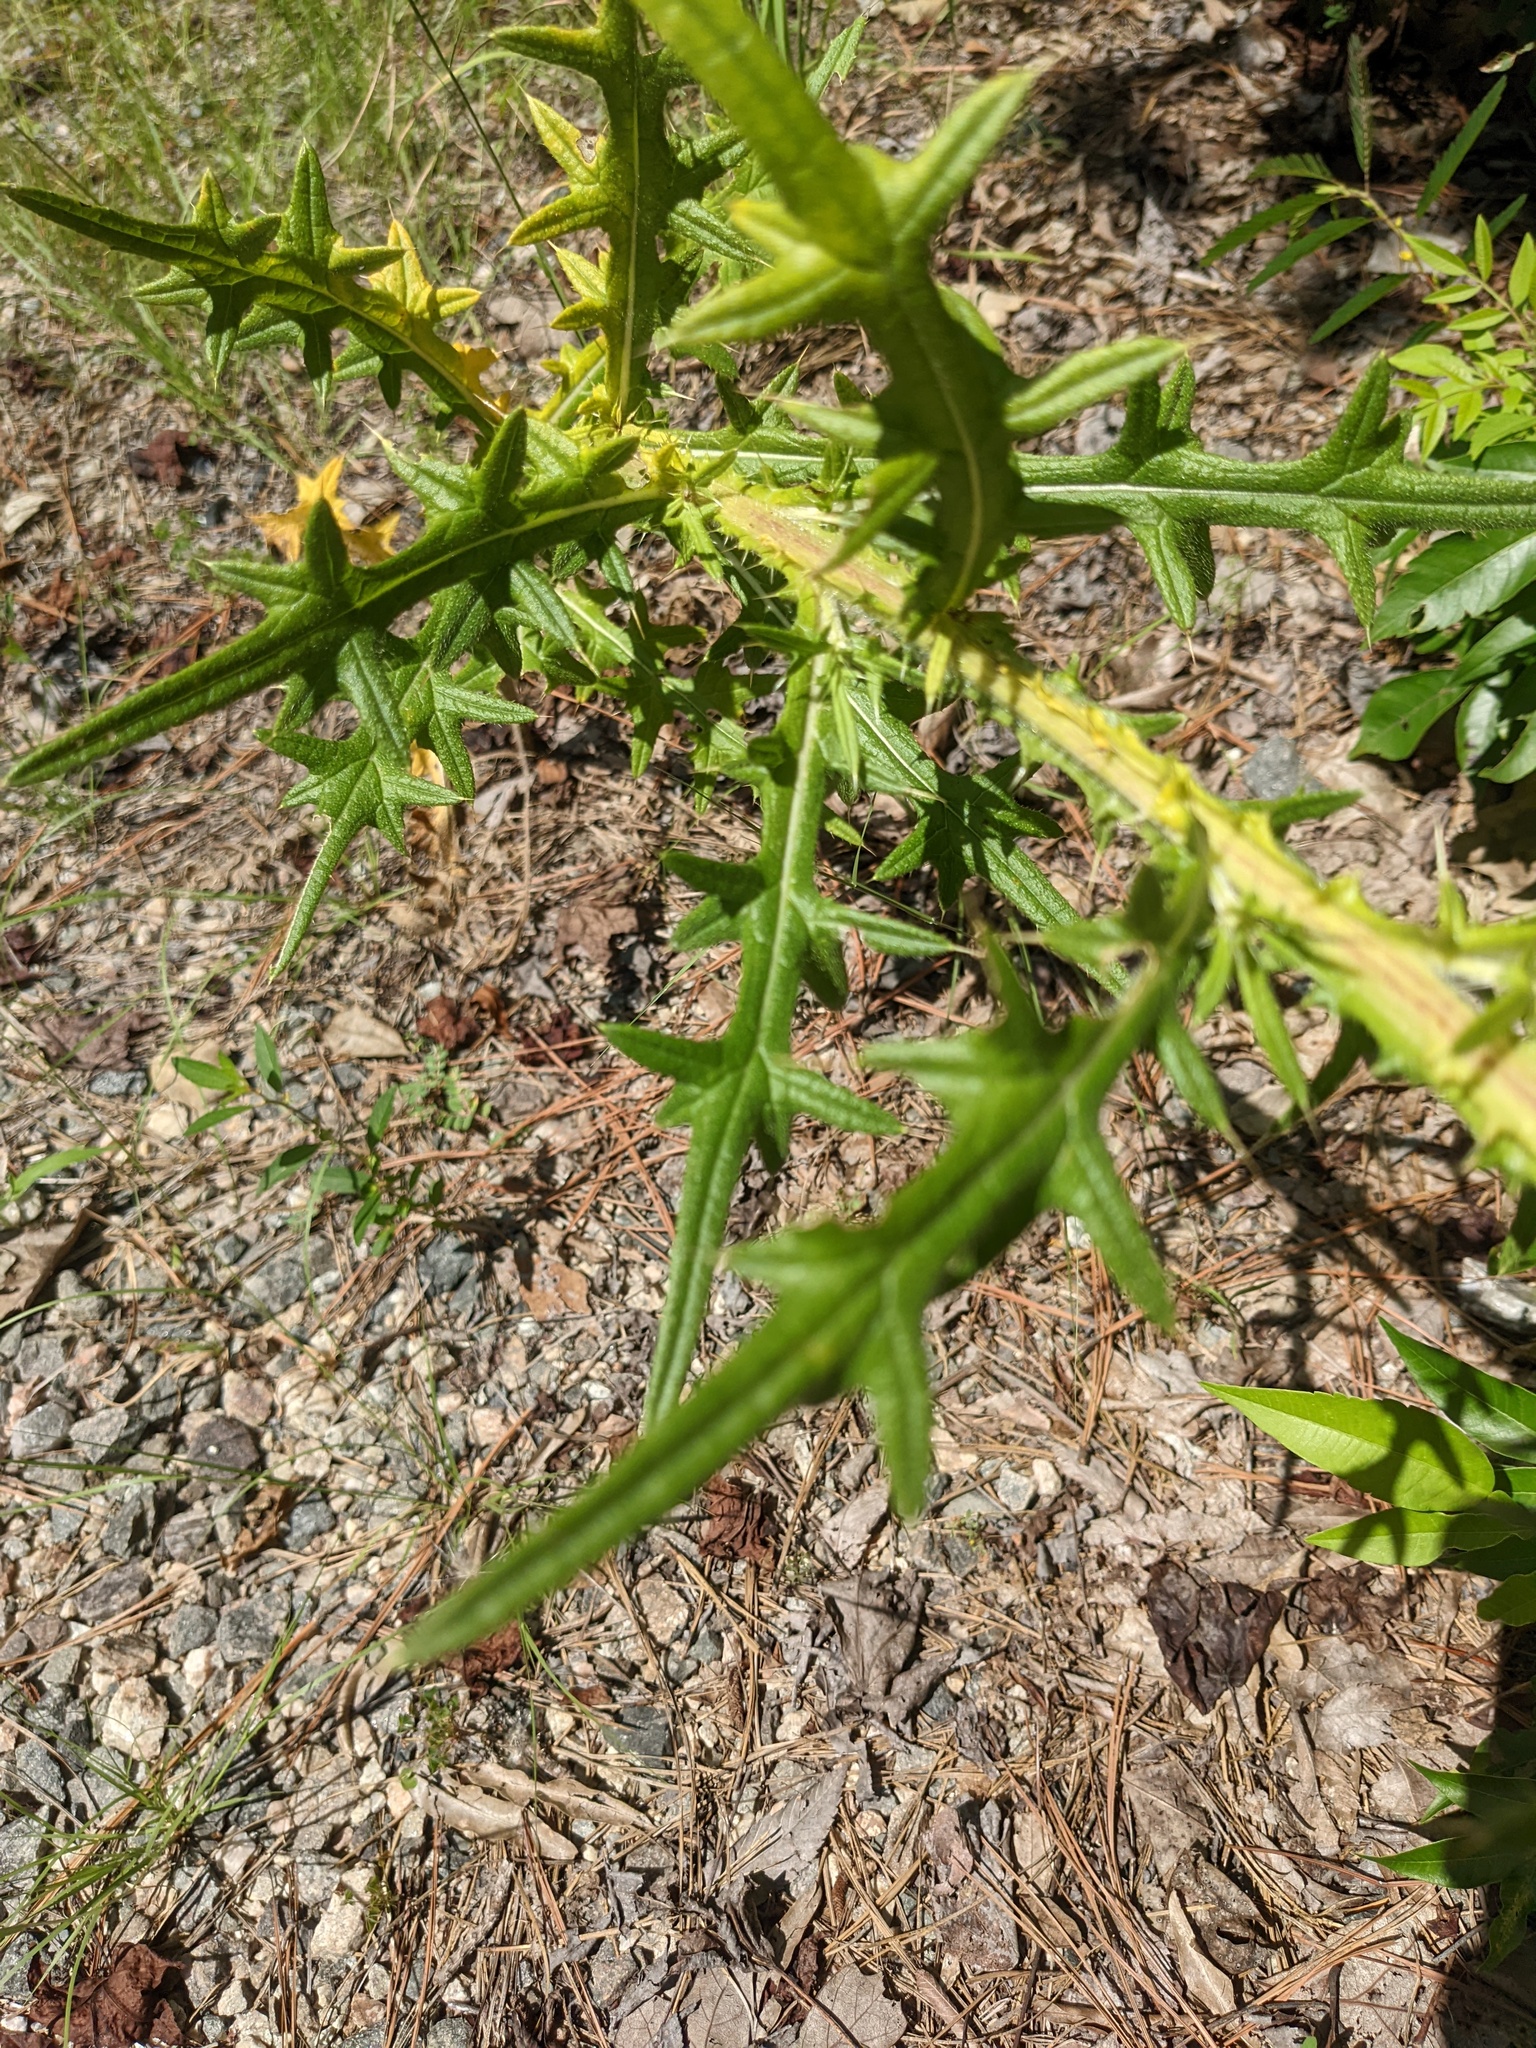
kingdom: Plantae
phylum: Tracheophyta
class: Magnoliopsida
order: Asterales
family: Asteraceae
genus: Cirsium
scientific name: Cirsium vulgare
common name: Bull thistle
